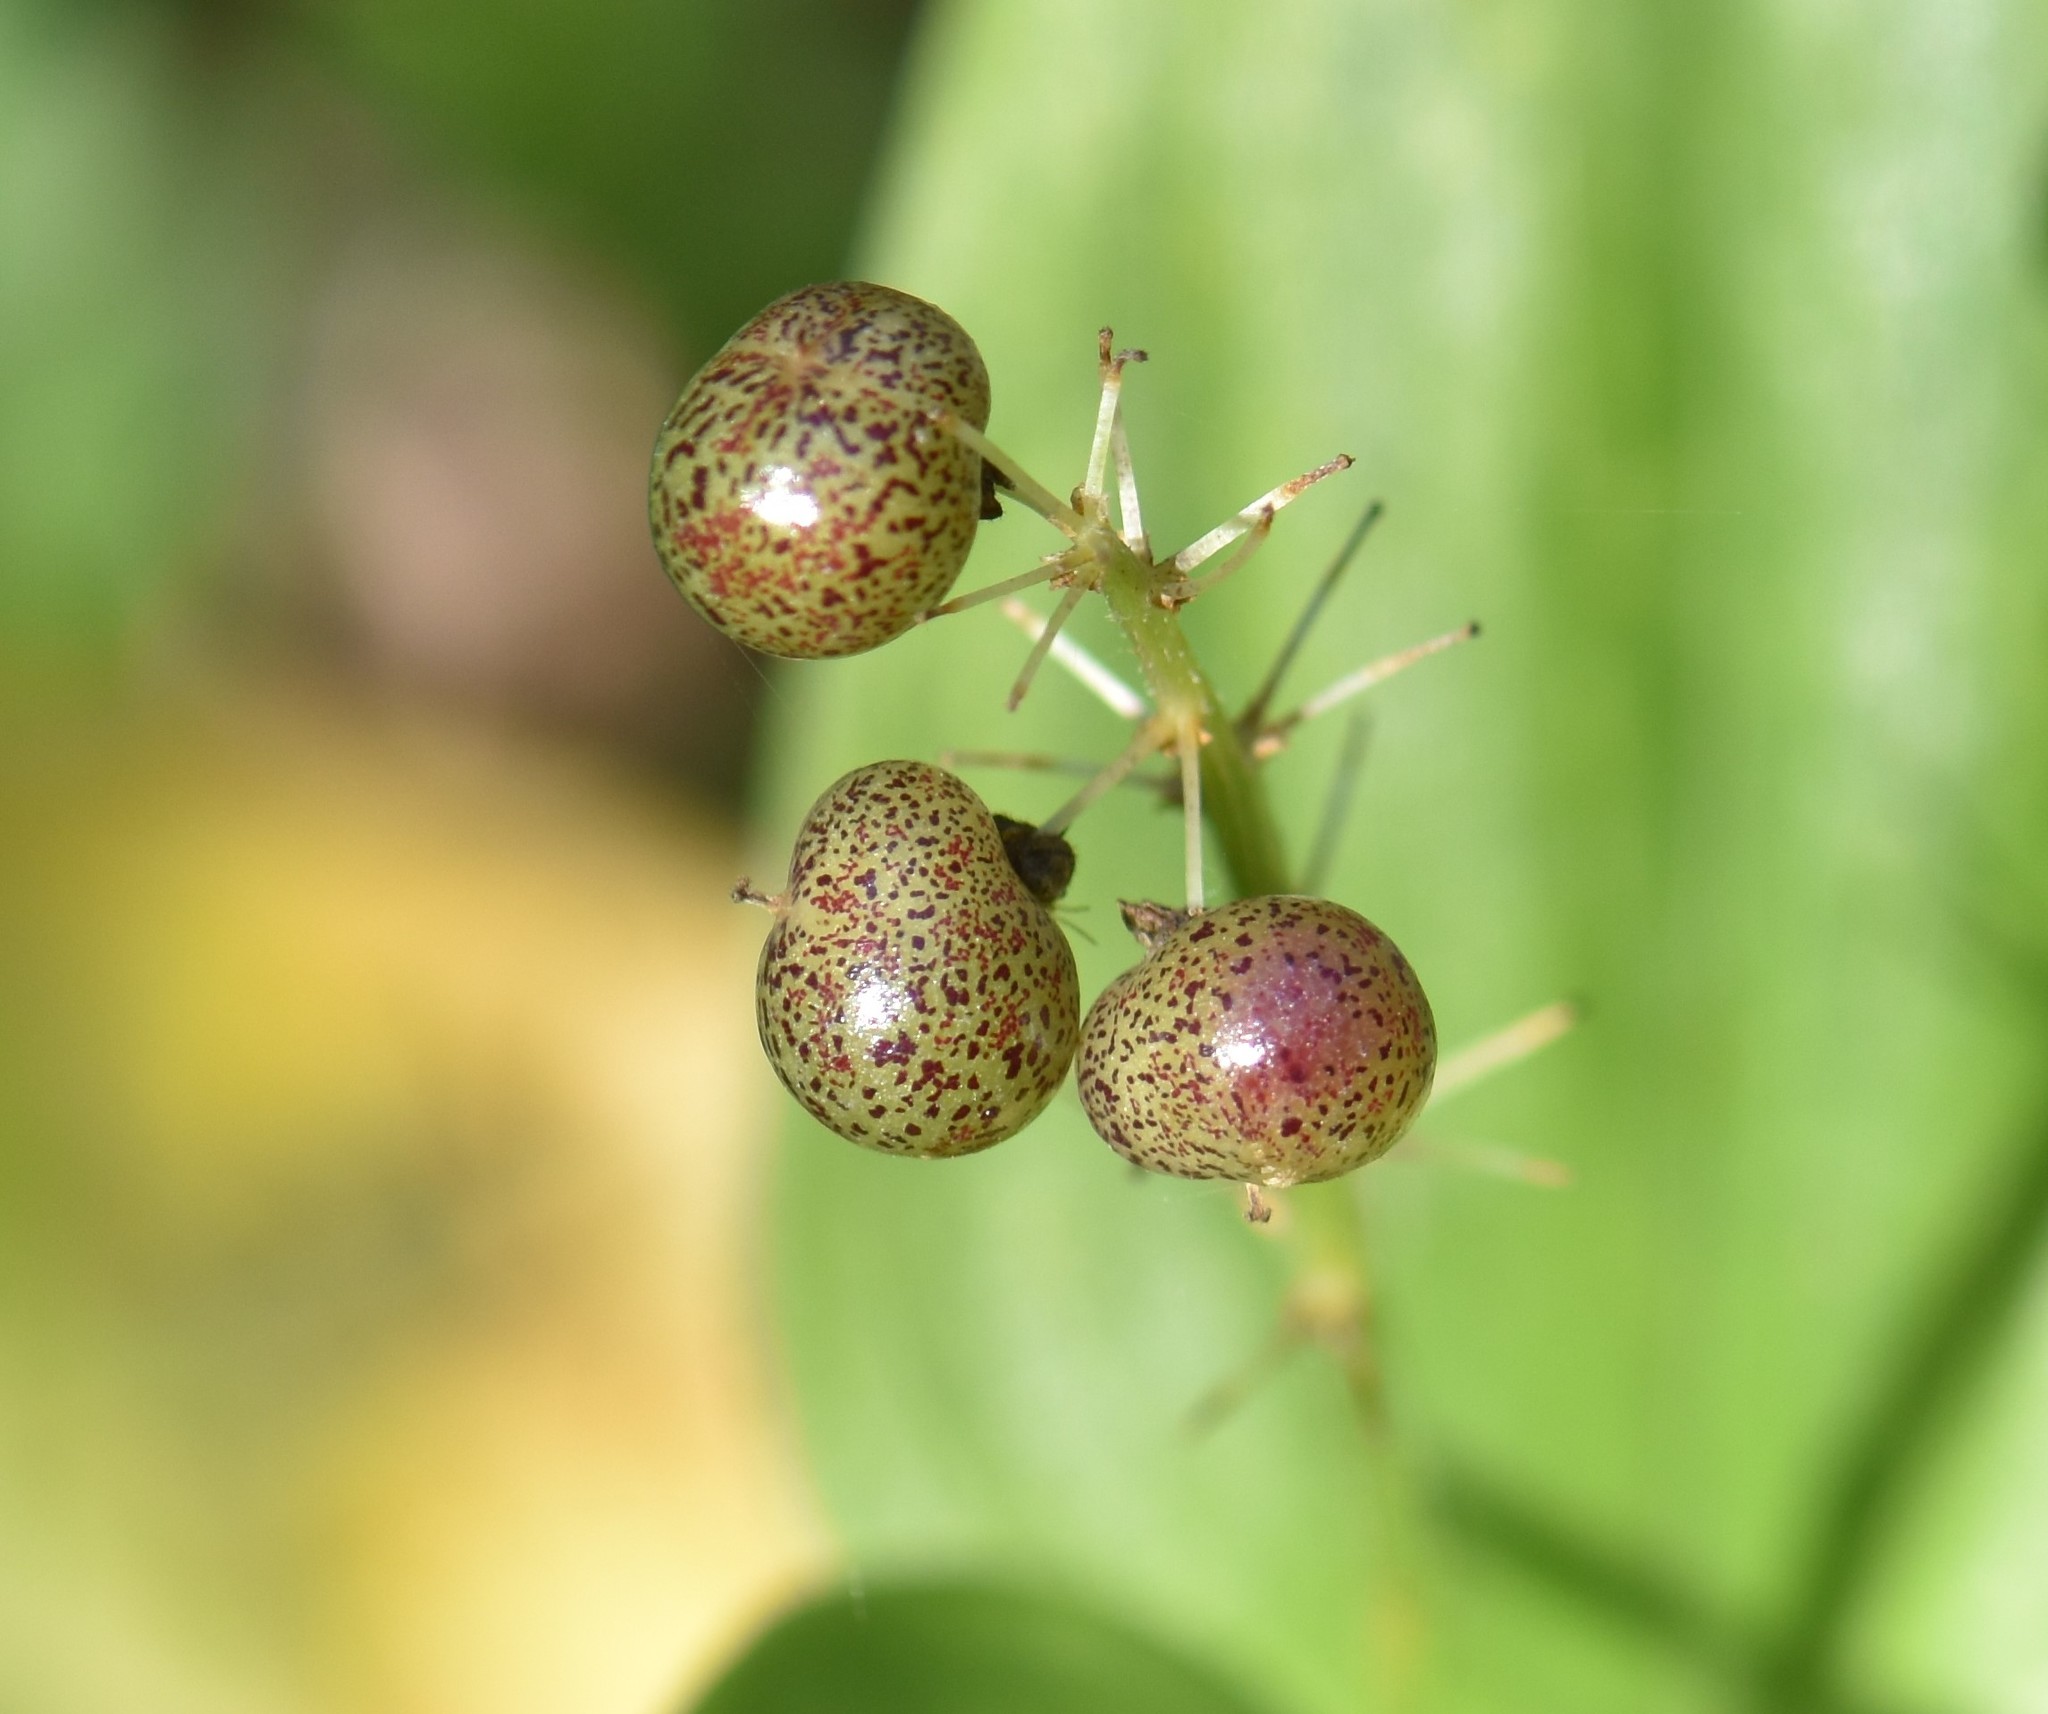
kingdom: Plantae
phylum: Tracheophyta
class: Liliopsida
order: Asparagales
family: Asparagaceae
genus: Maianthemum
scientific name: Maianthemum canadense
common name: False lily-of-the-valley
